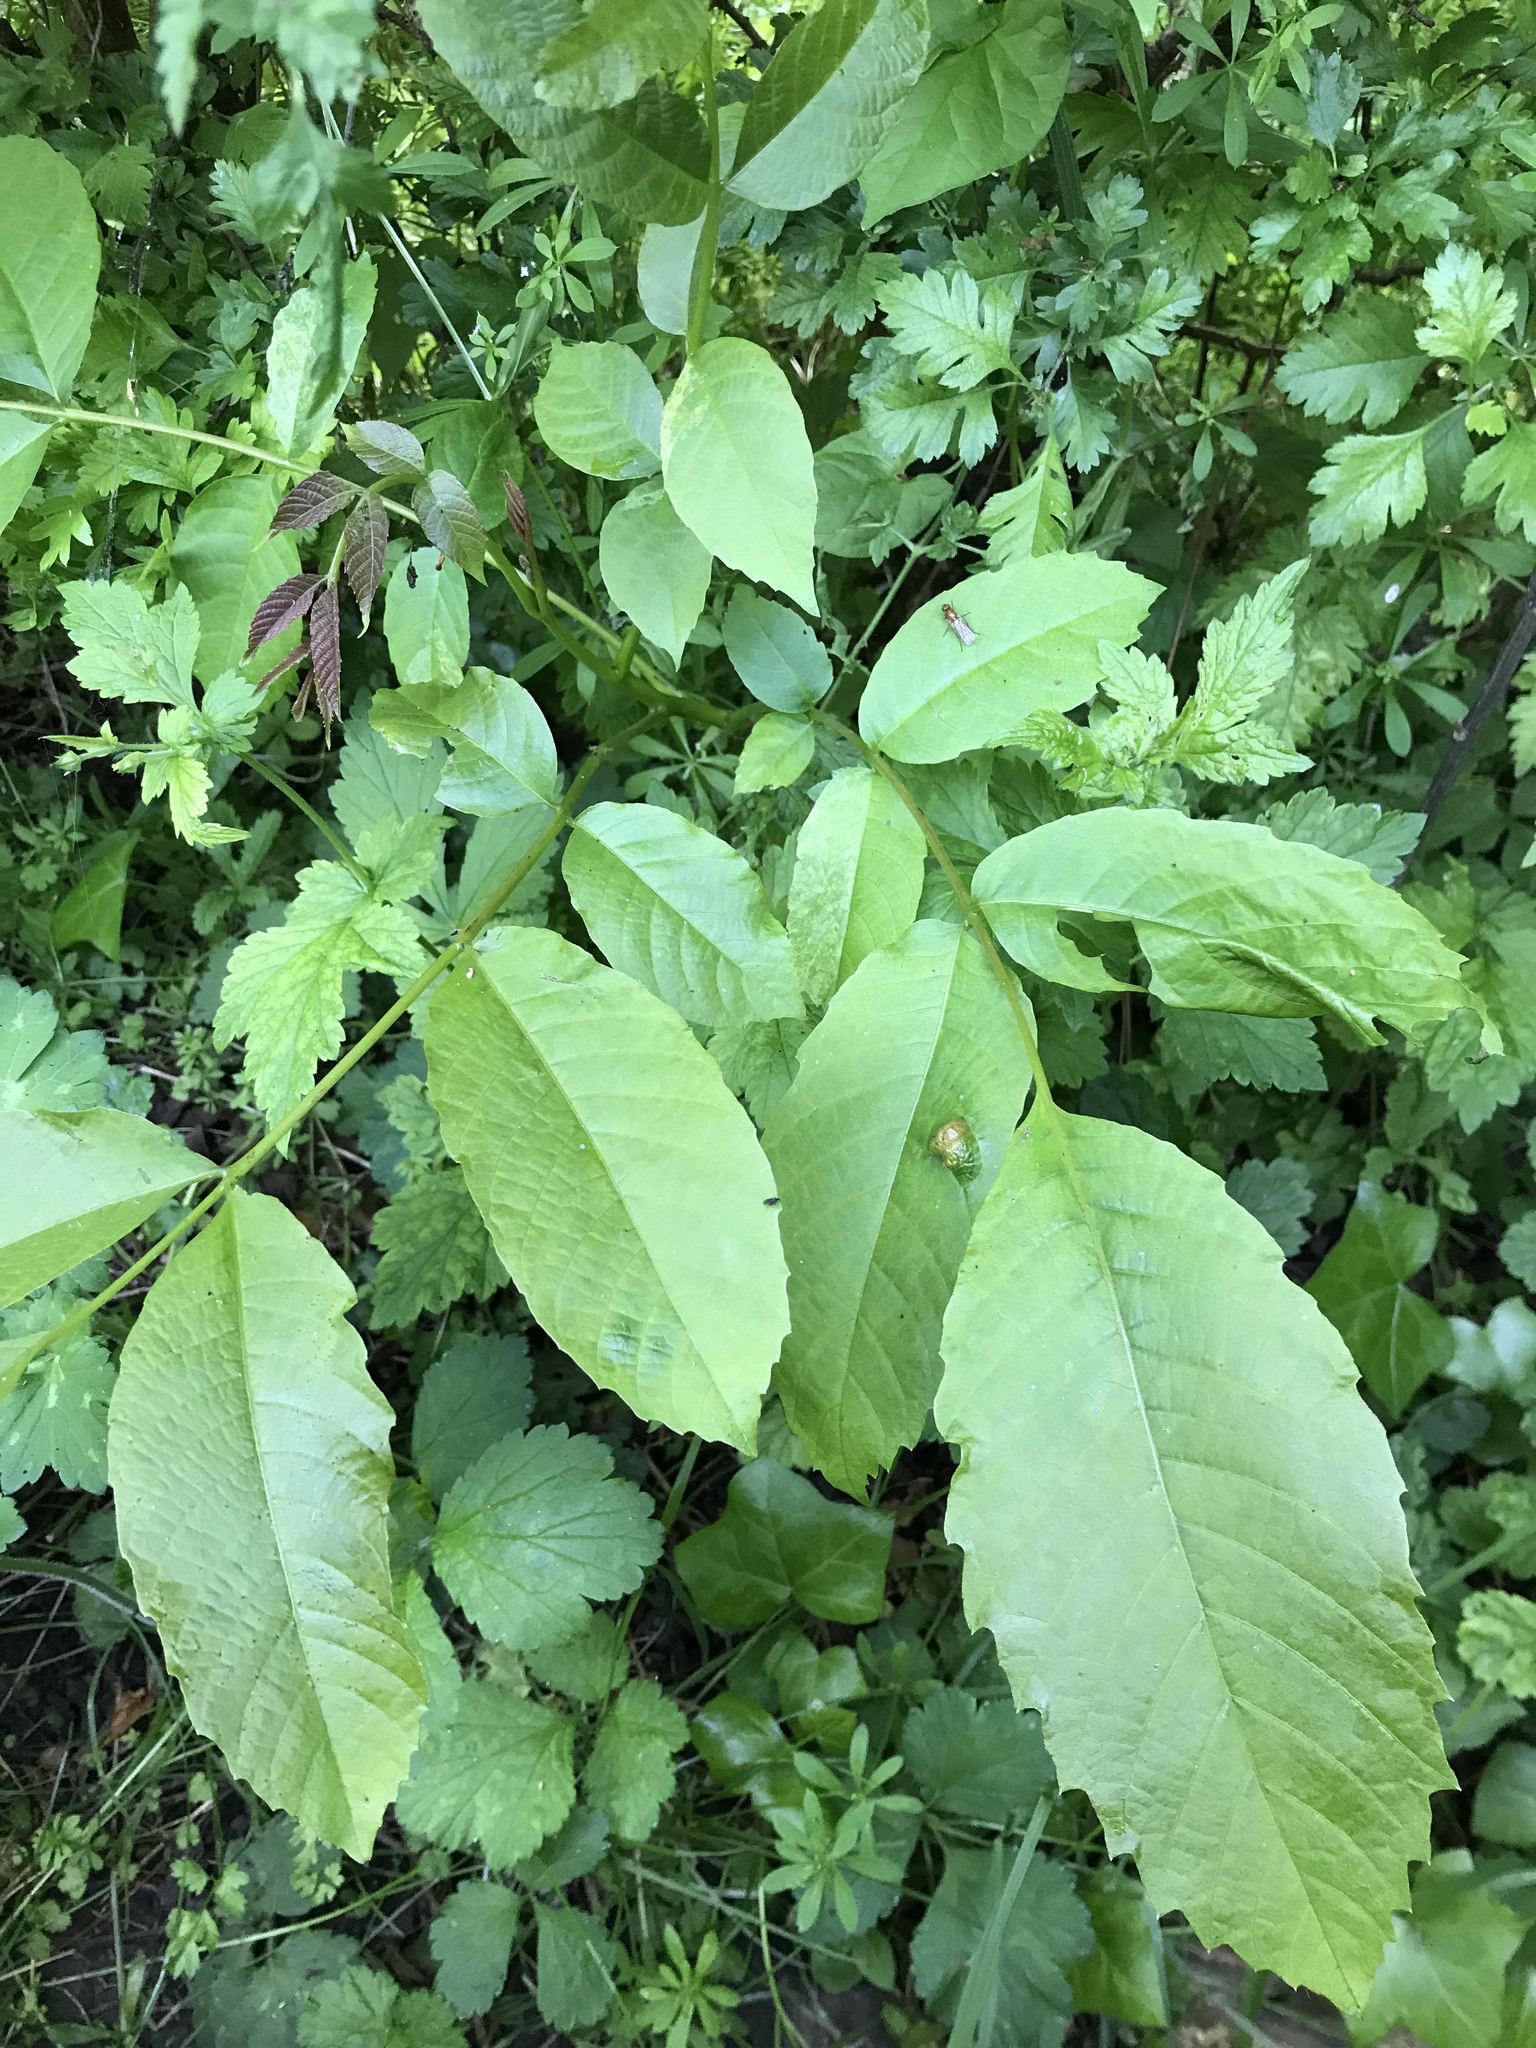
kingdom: Animalia
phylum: Arthropoda
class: Arachnida
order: Trombidiformes
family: Eriophyidae
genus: Aceria
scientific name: Aceria erinea
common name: Persian walnut erineum mite
